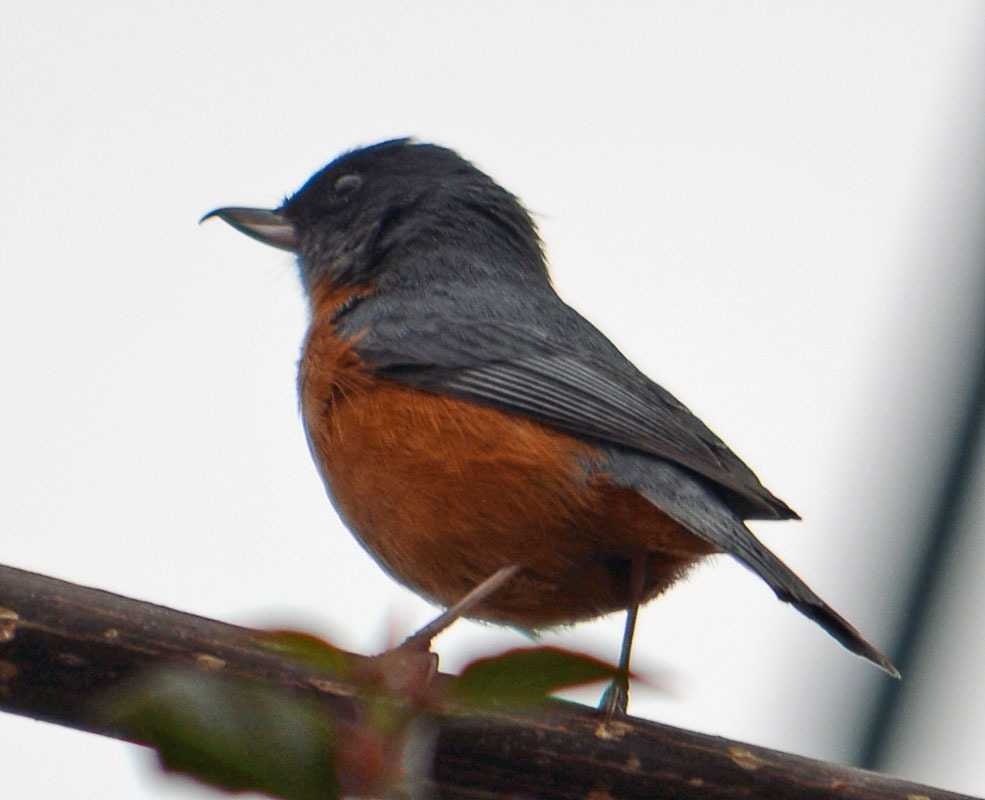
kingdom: Animalia
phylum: Chordata
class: Aves
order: Passeriformes
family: Thraupidae
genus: Diglossa
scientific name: Diglossa baritula
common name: Cinnamon-bellied flowerpiercer
